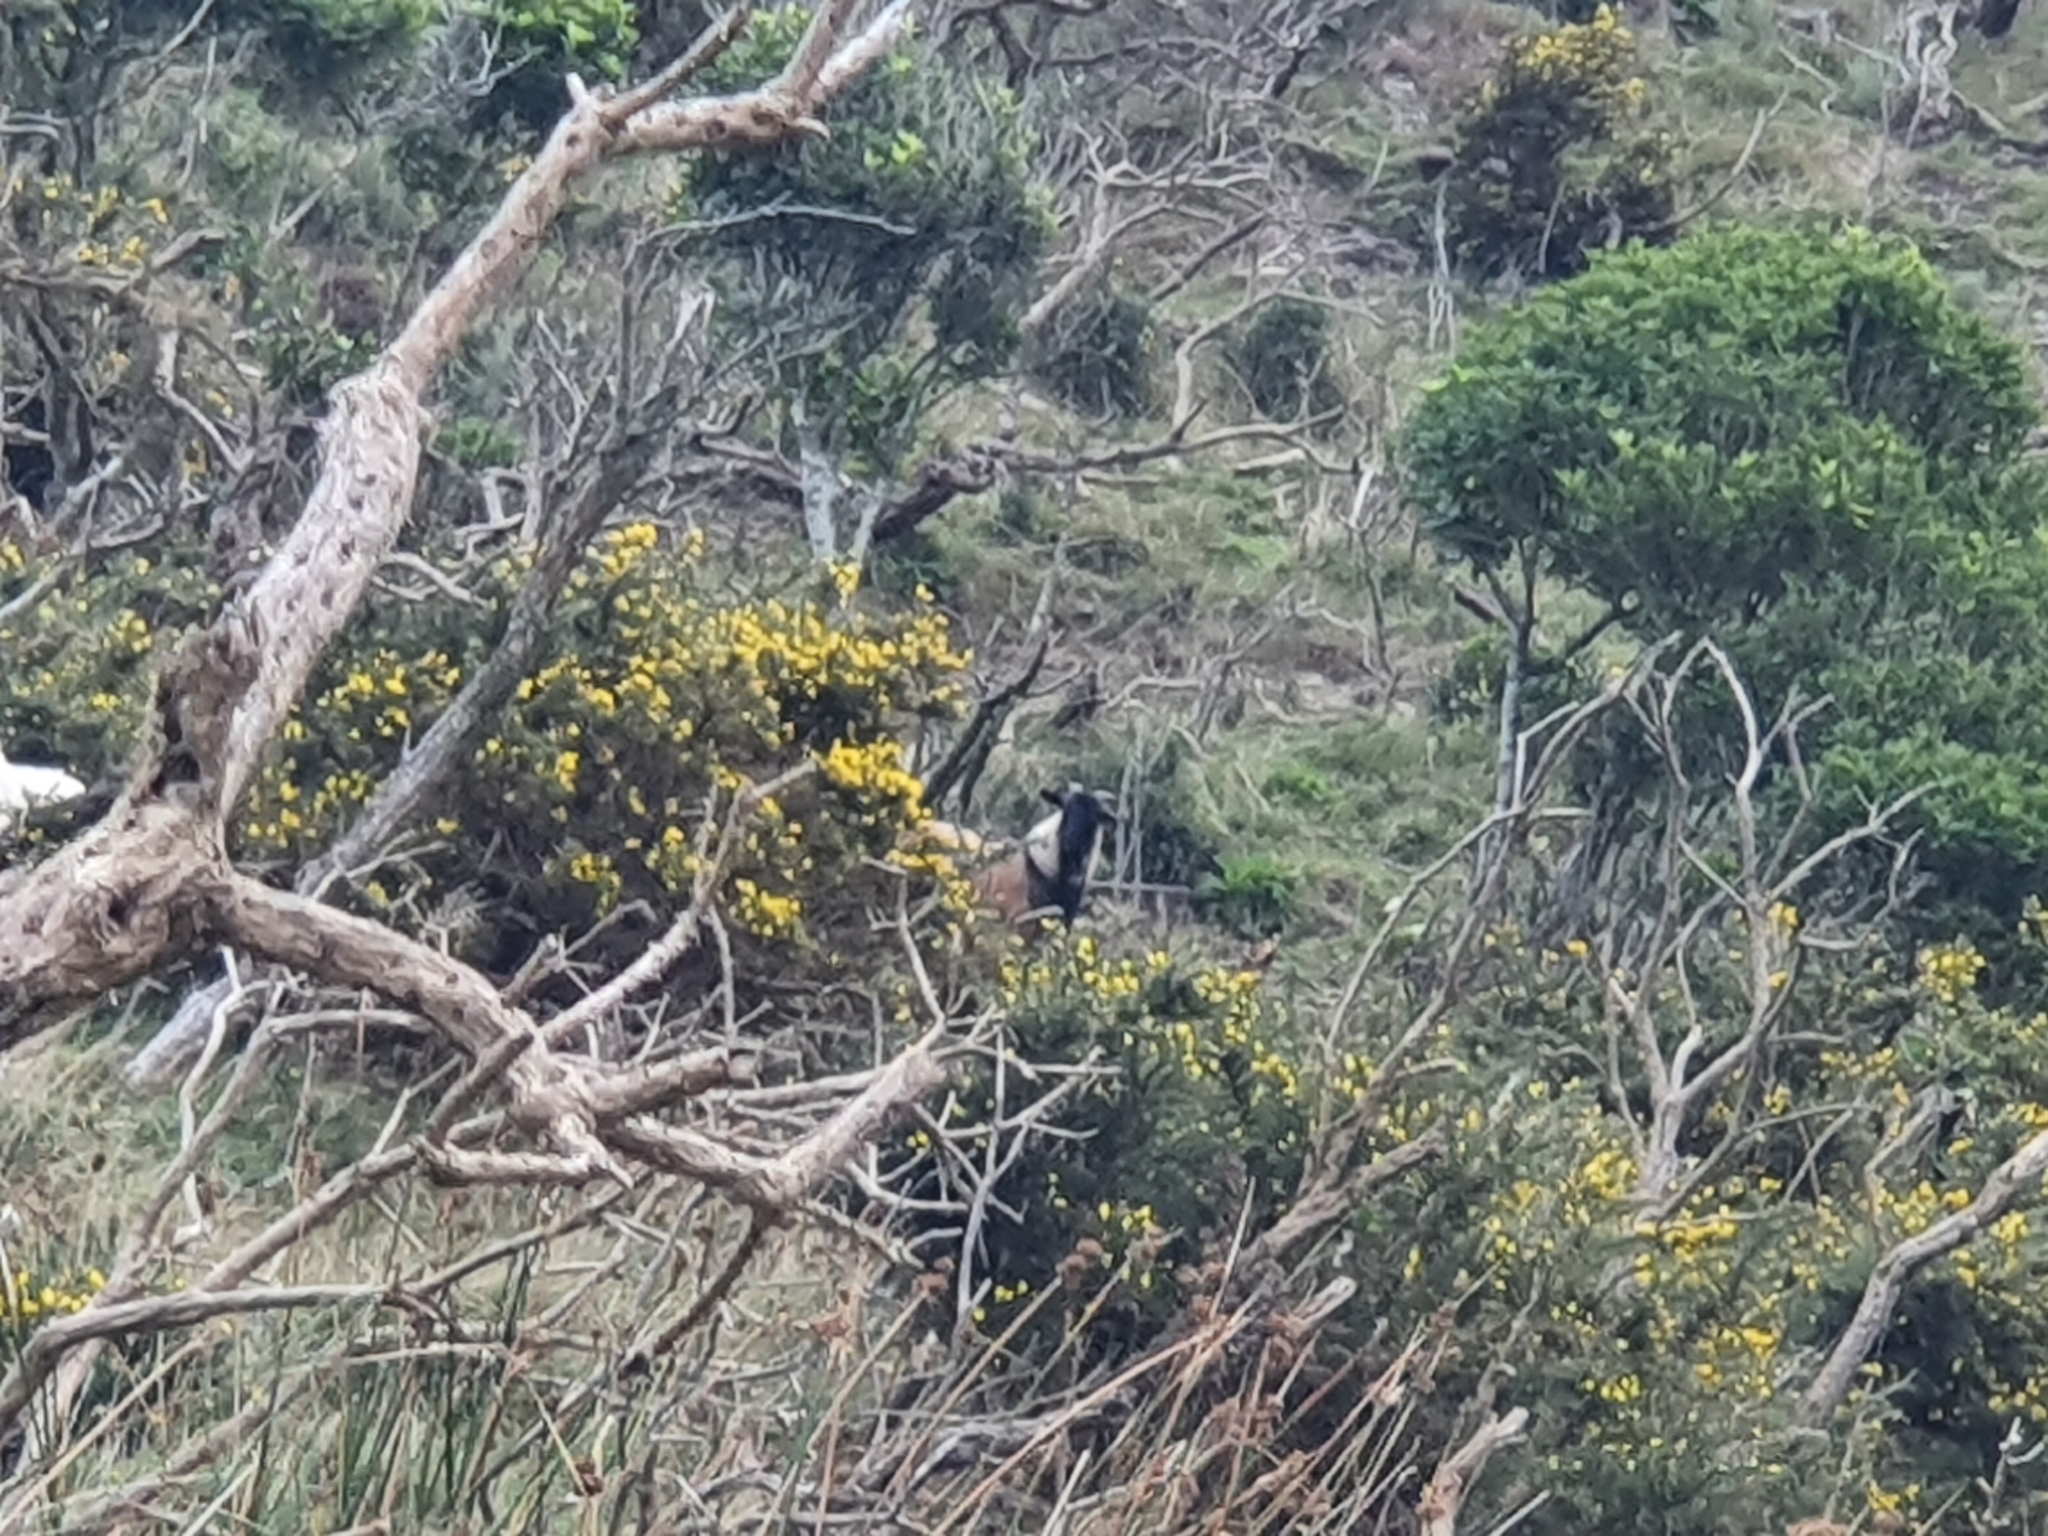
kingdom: Animalia
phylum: Chordata
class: Mammalia
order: Artiodactyla
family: Bovidae
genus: Capra
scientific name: Capra hircus
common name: Domestic goat
